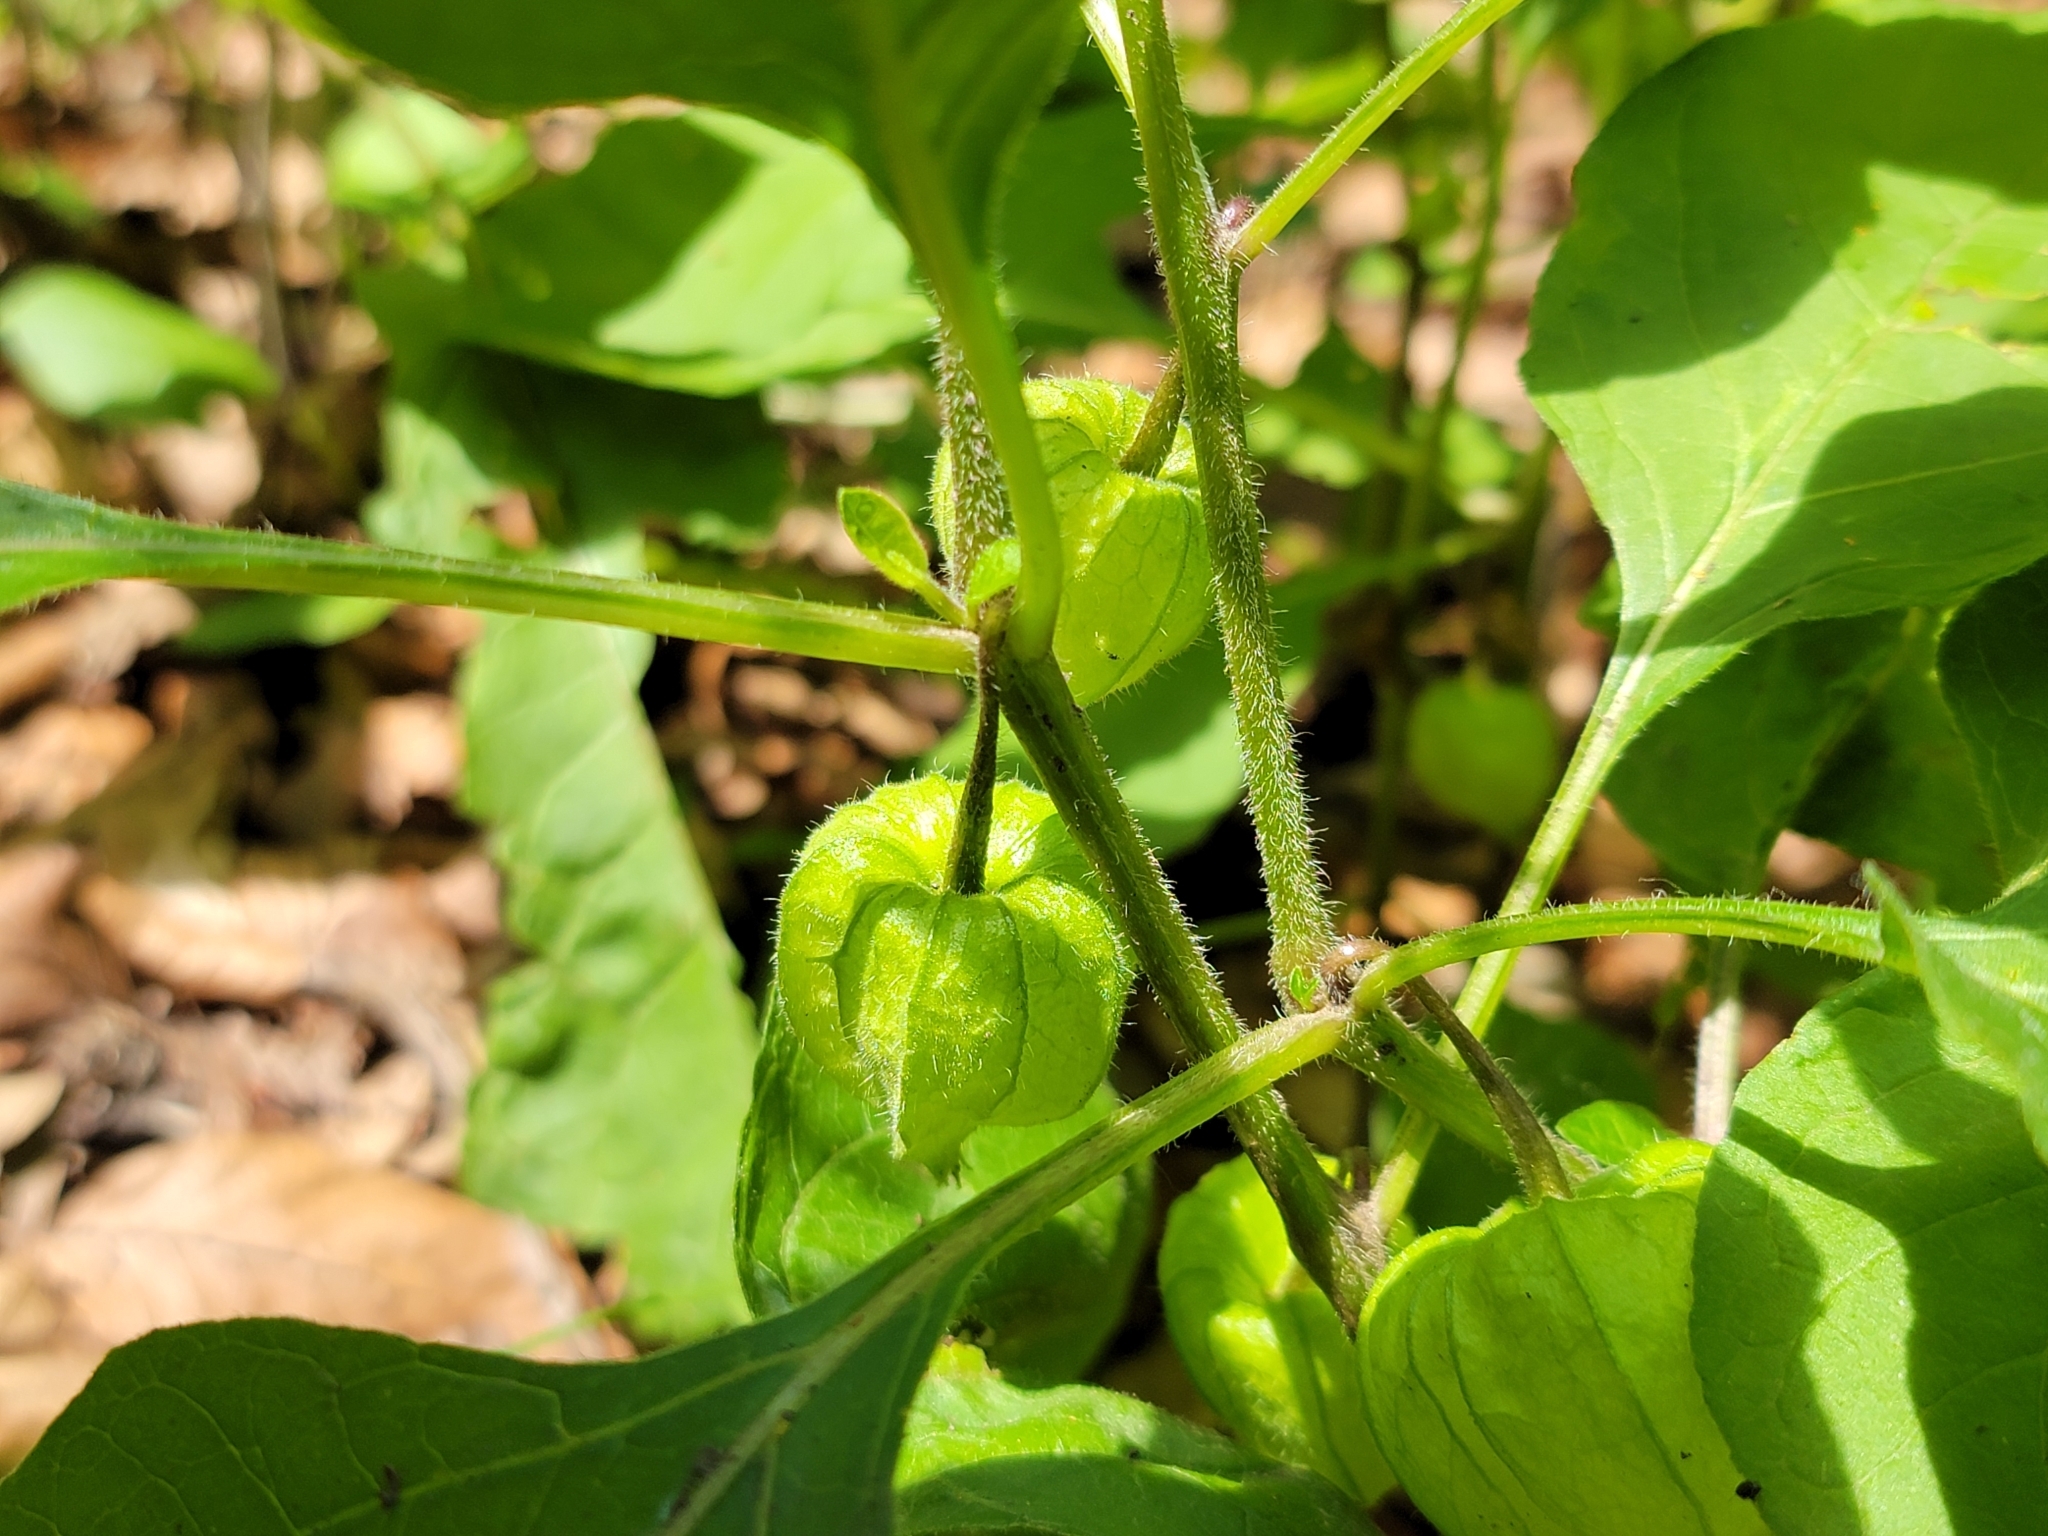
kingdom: Plantae
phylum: Tracheophyta
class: Magnoliopsida
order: Solanales
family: Solanaceae
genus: Alkekengi
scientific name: Alkekengi officinarum
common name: Japanese-lantern
